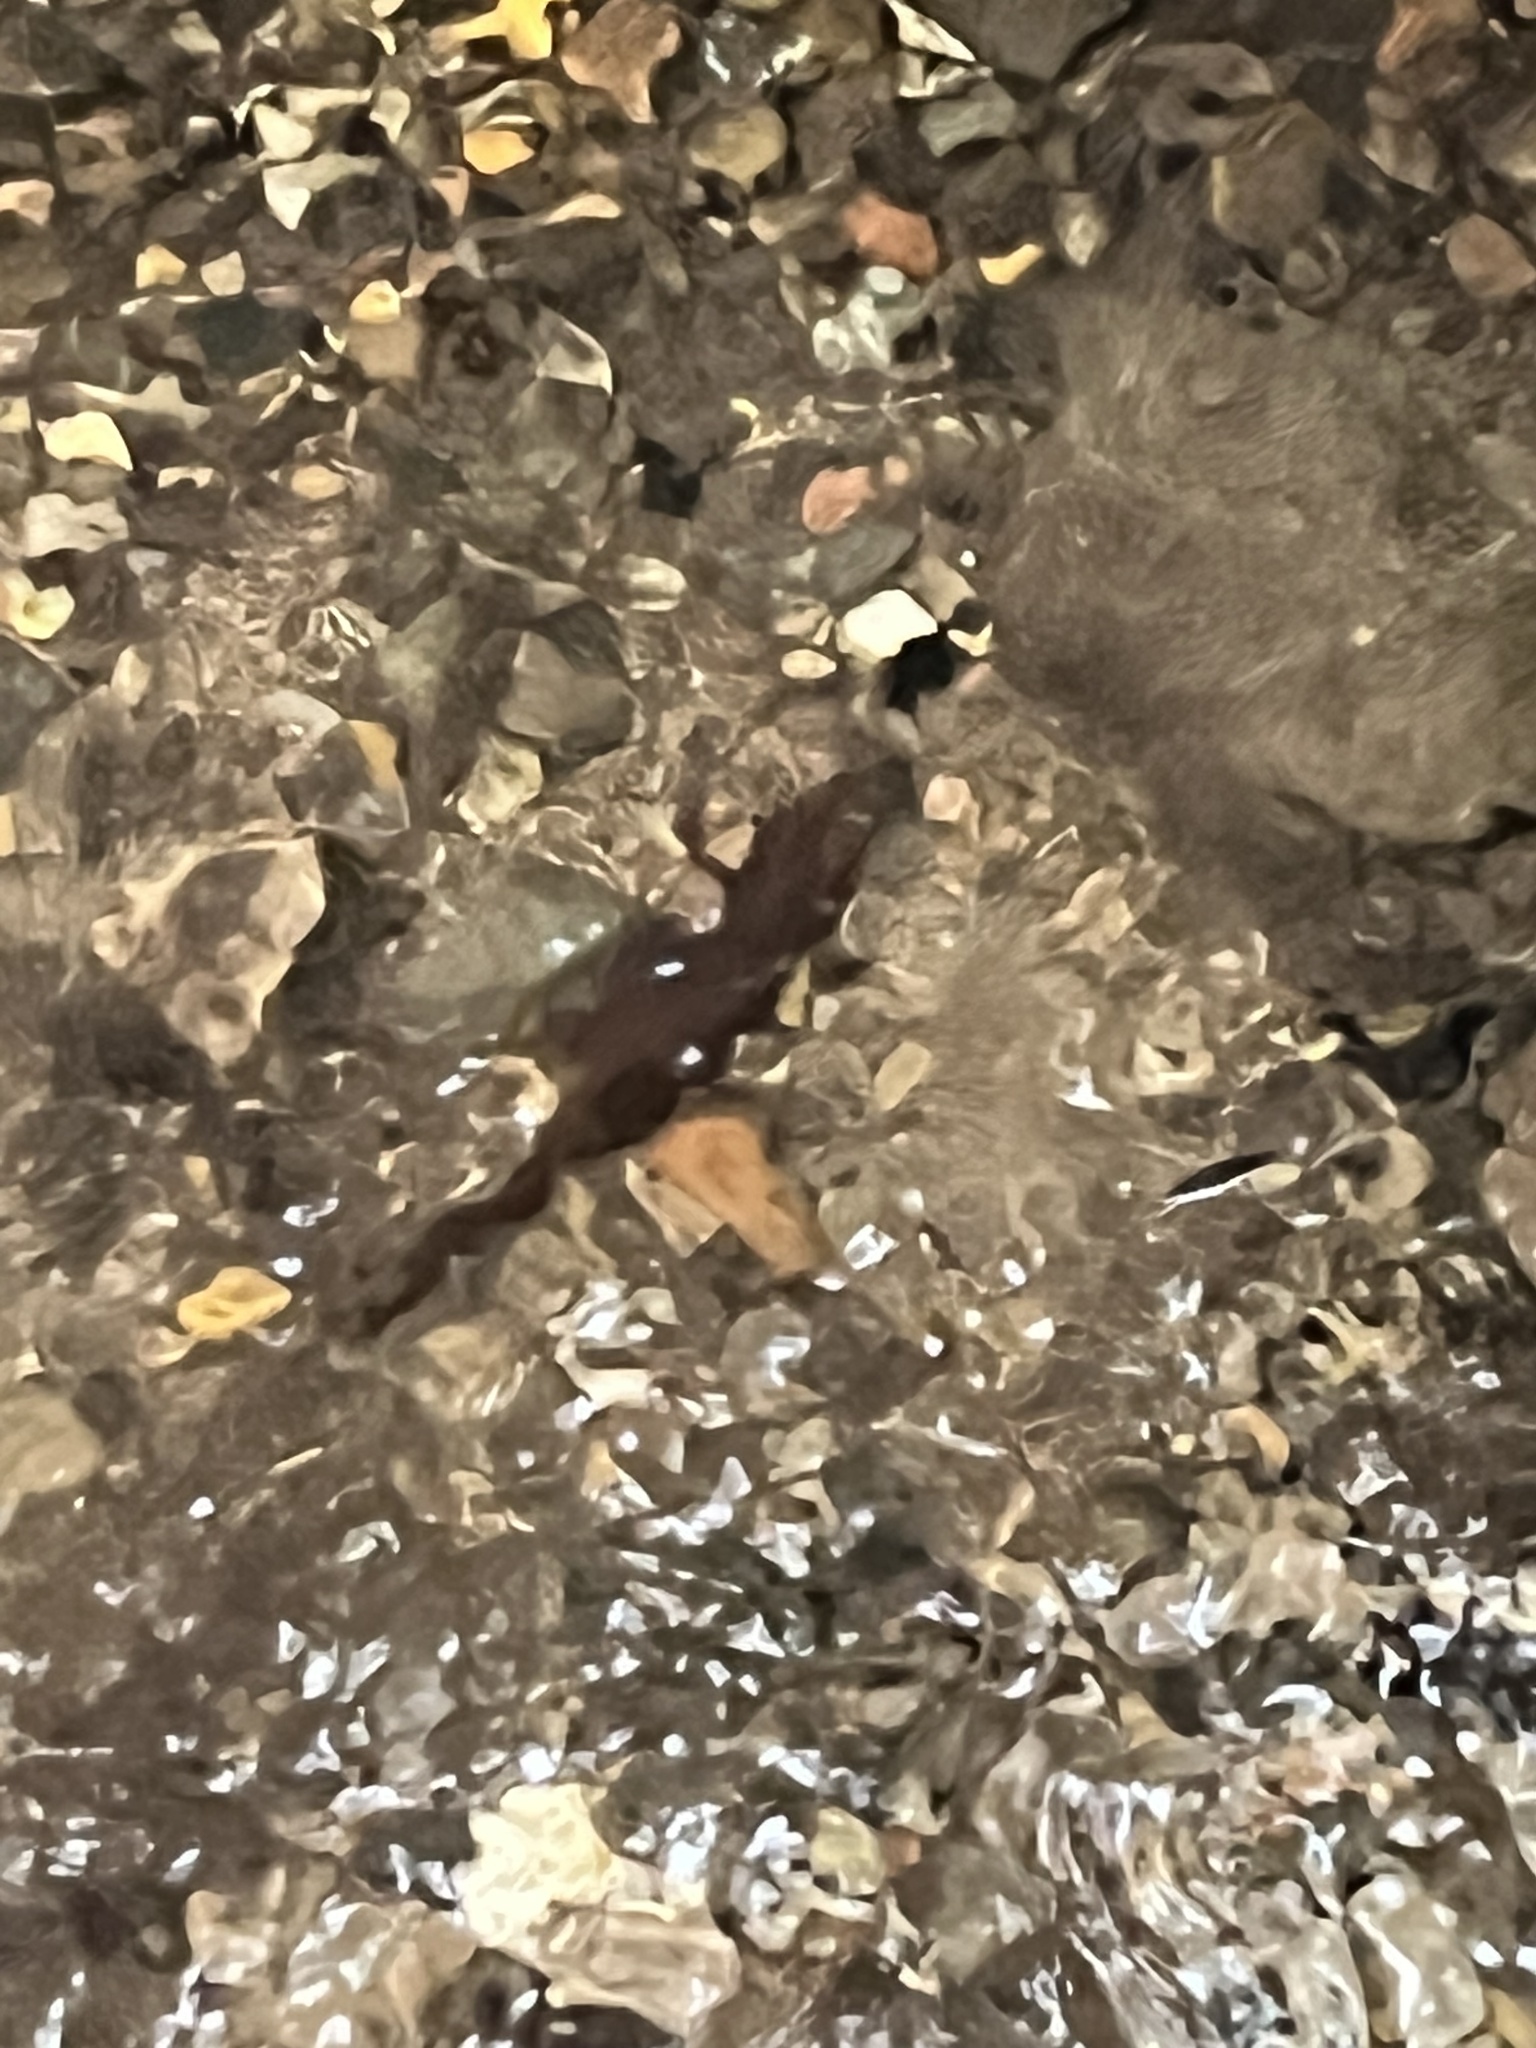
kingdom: Animalia
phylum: Chordata
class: Amphibia
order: Caudata
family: Salamandridae
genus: Taricha
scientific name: Taricha torosa
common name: California newt
